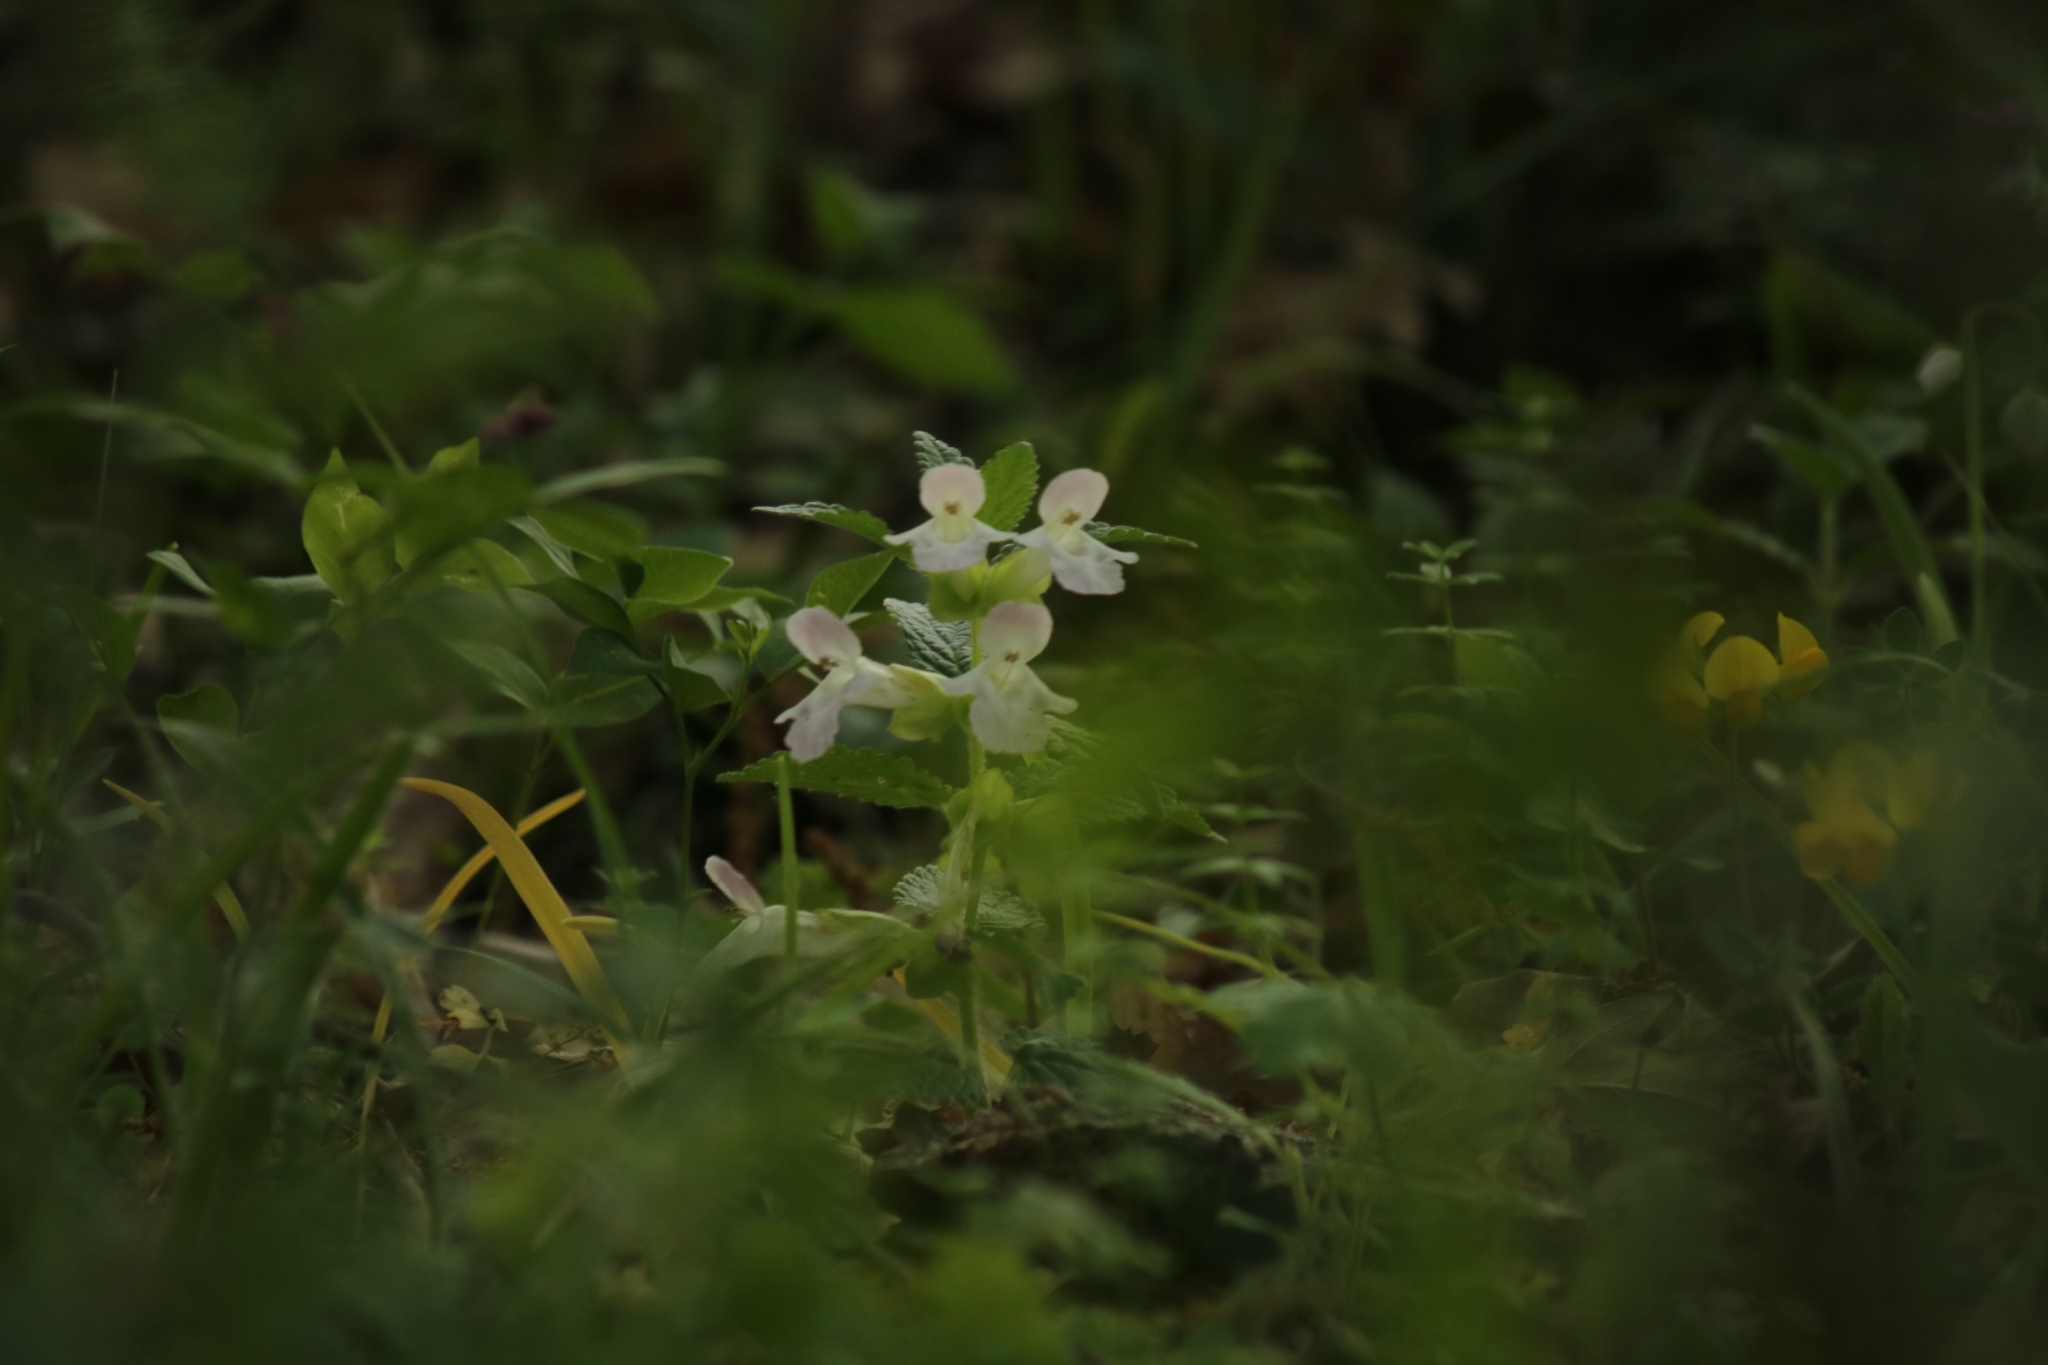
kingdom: Plantae
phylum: Tracheophyta
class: Magnoliopsida
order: Lamiales
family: Lamiaceae
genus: Prasium
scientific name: Prasium majus
